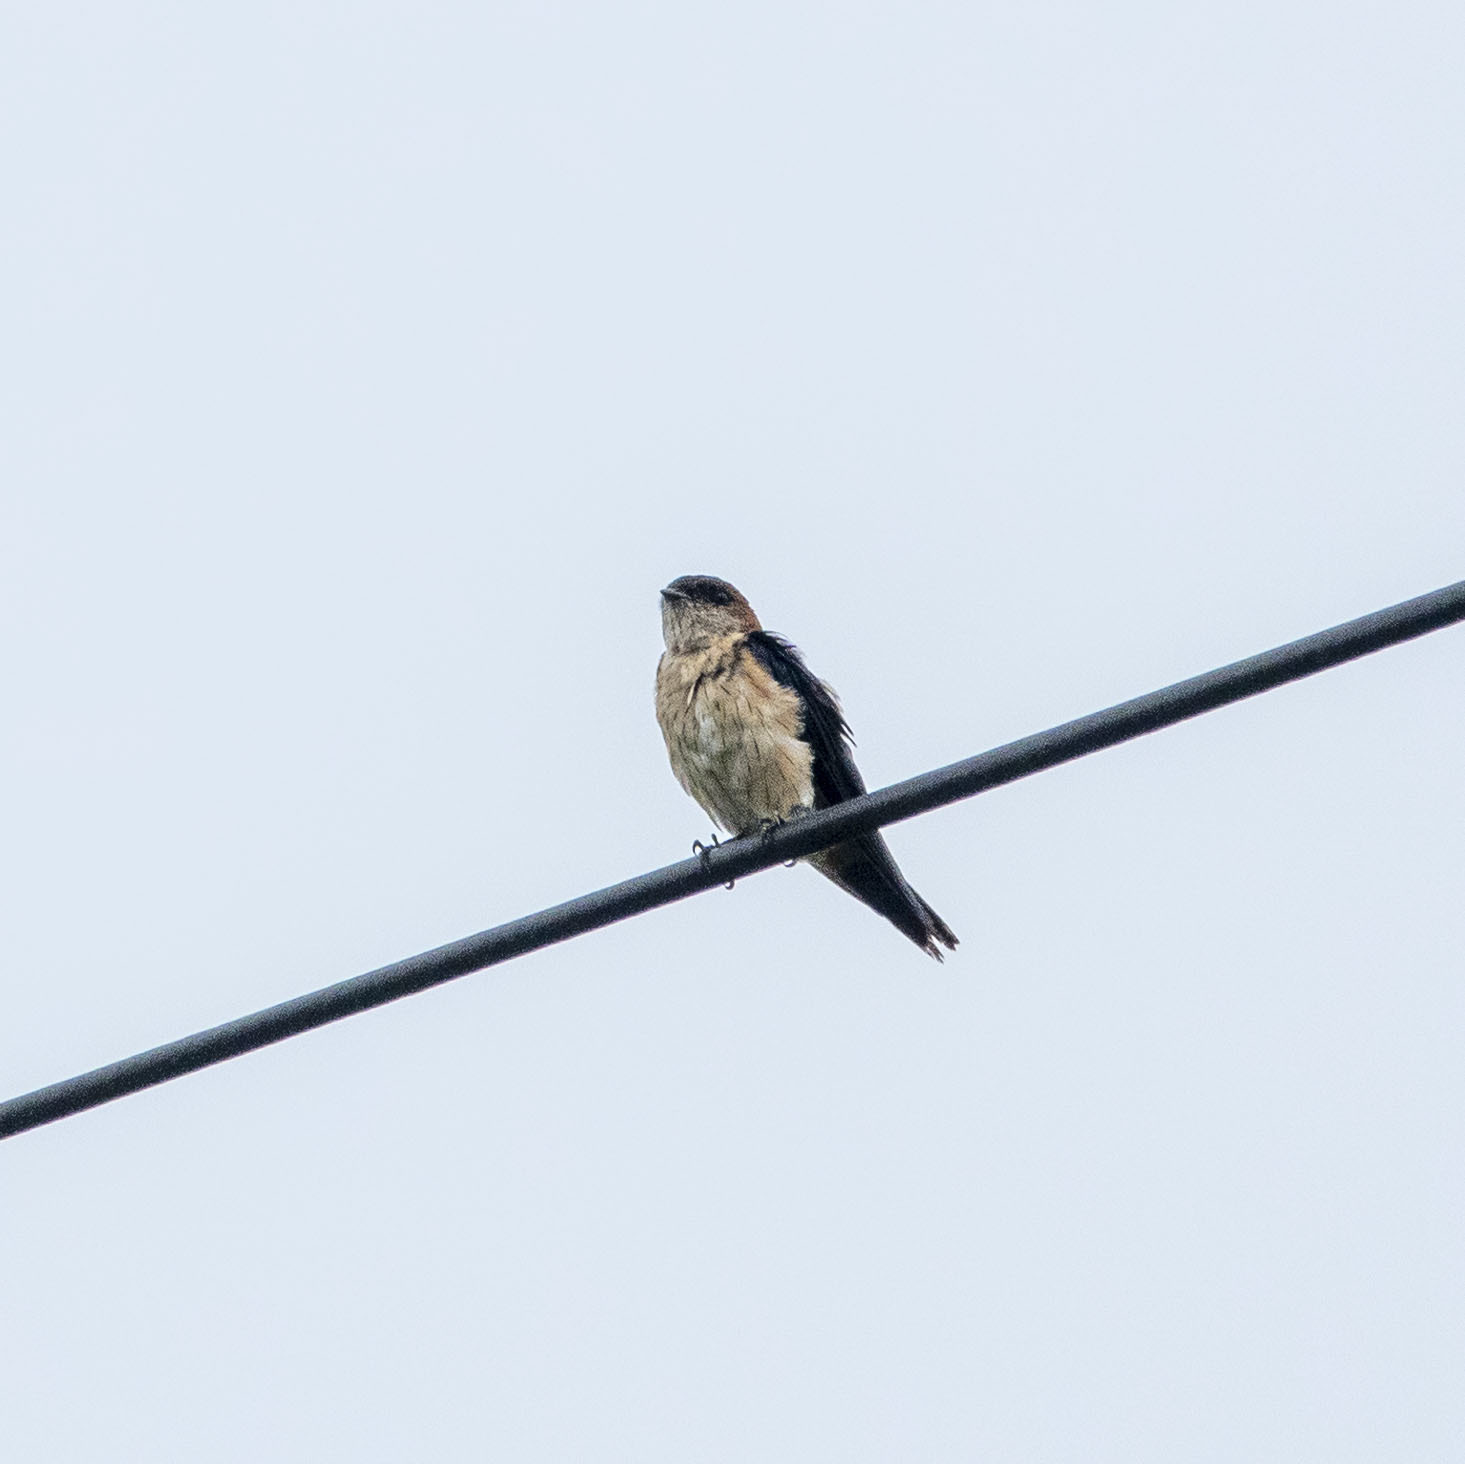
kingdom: Animalia
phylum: Chordata
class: Aves
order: Passeriformes
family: Hirundinidae
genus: Cecropis
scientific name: Cecropis daurica
